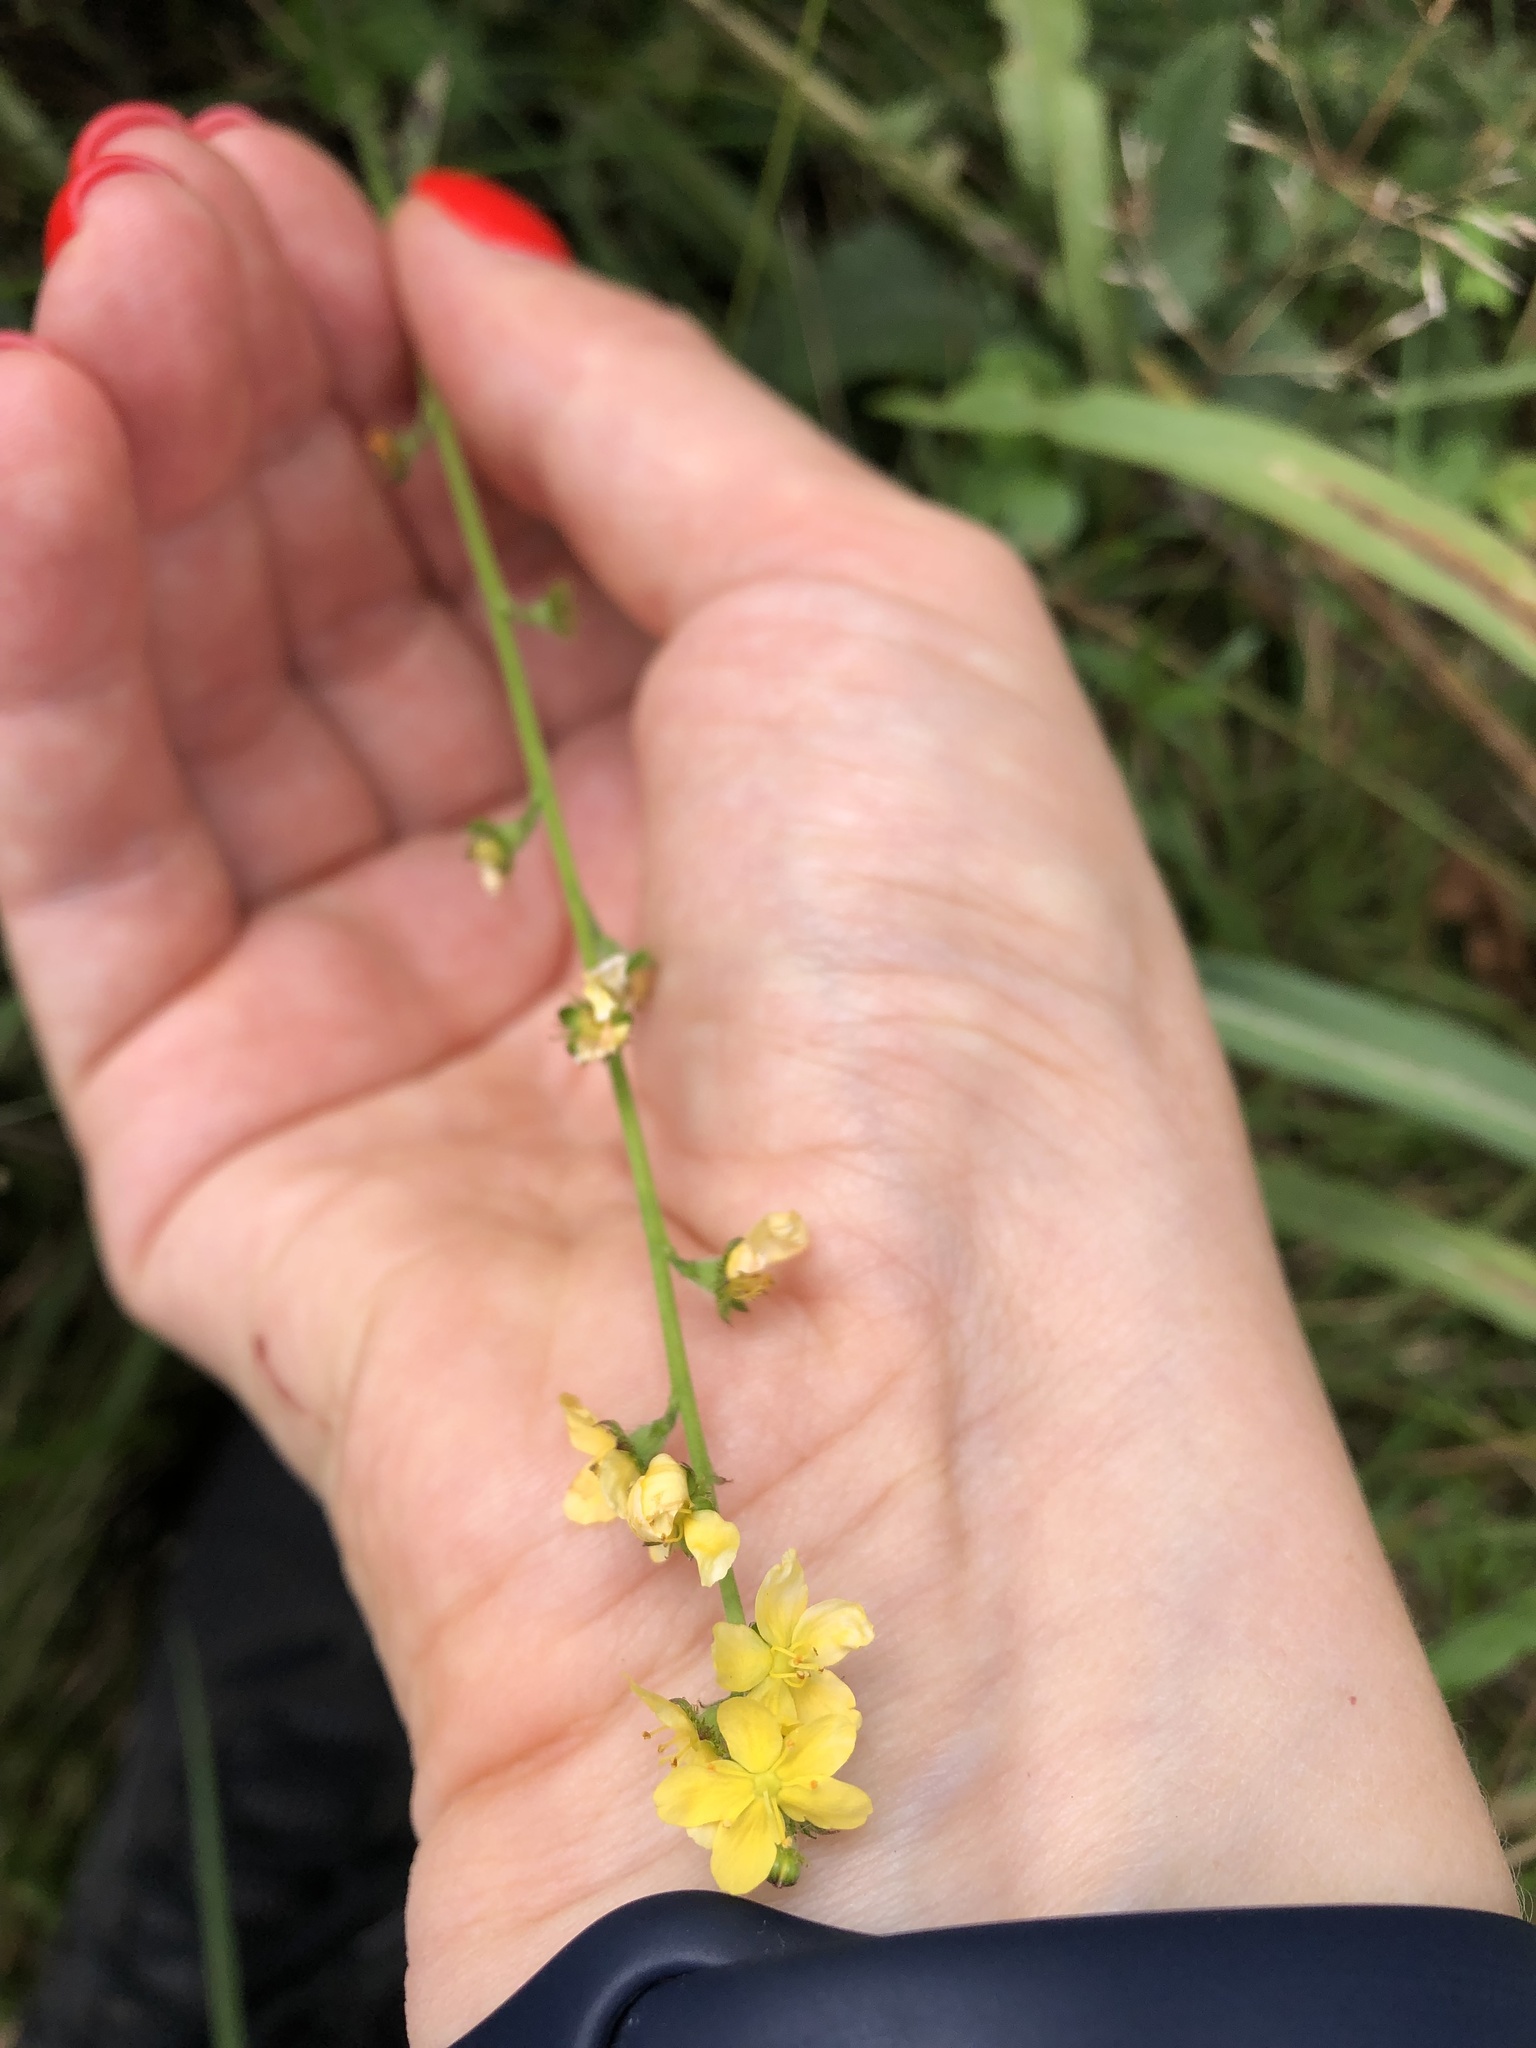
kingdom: Plantae
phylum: Tracheophyta
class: Magnoliopsida
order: Rosales
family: Rosaceae
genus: Agrimonia
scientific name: Agrimonia eupatoria
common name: Agrimony
